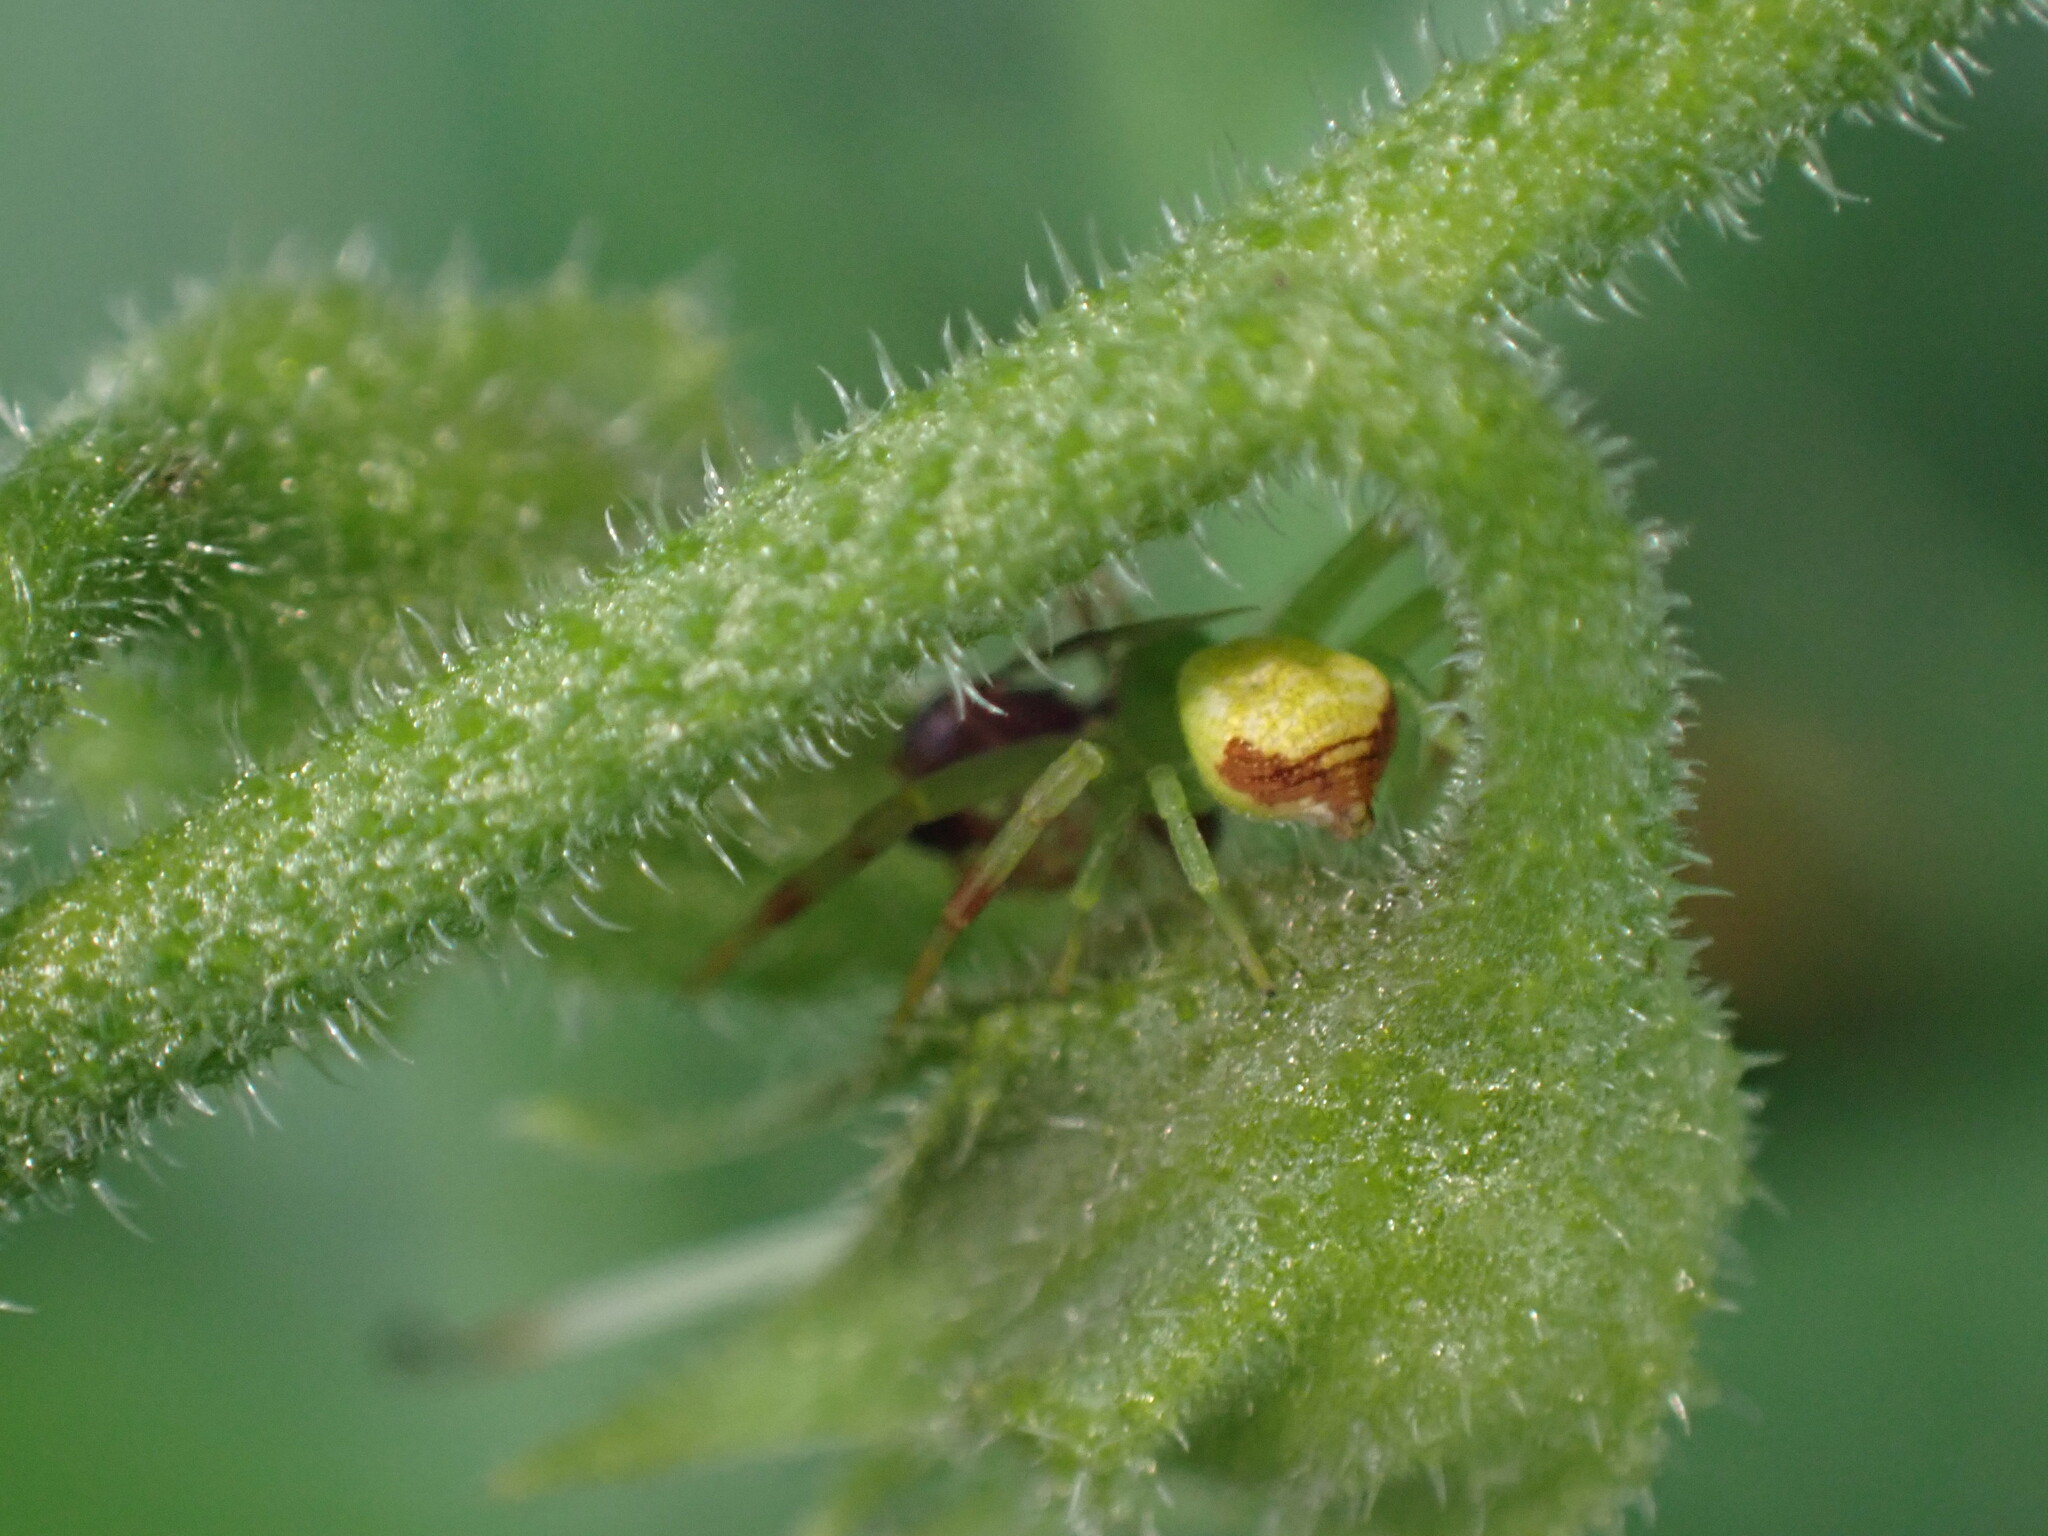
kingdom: Animalia
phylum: Arthropoda
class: Arachnida
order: Araneae
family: Thomisidae
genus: Ebrechtella
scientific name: Ebrechtella tricuspidata
